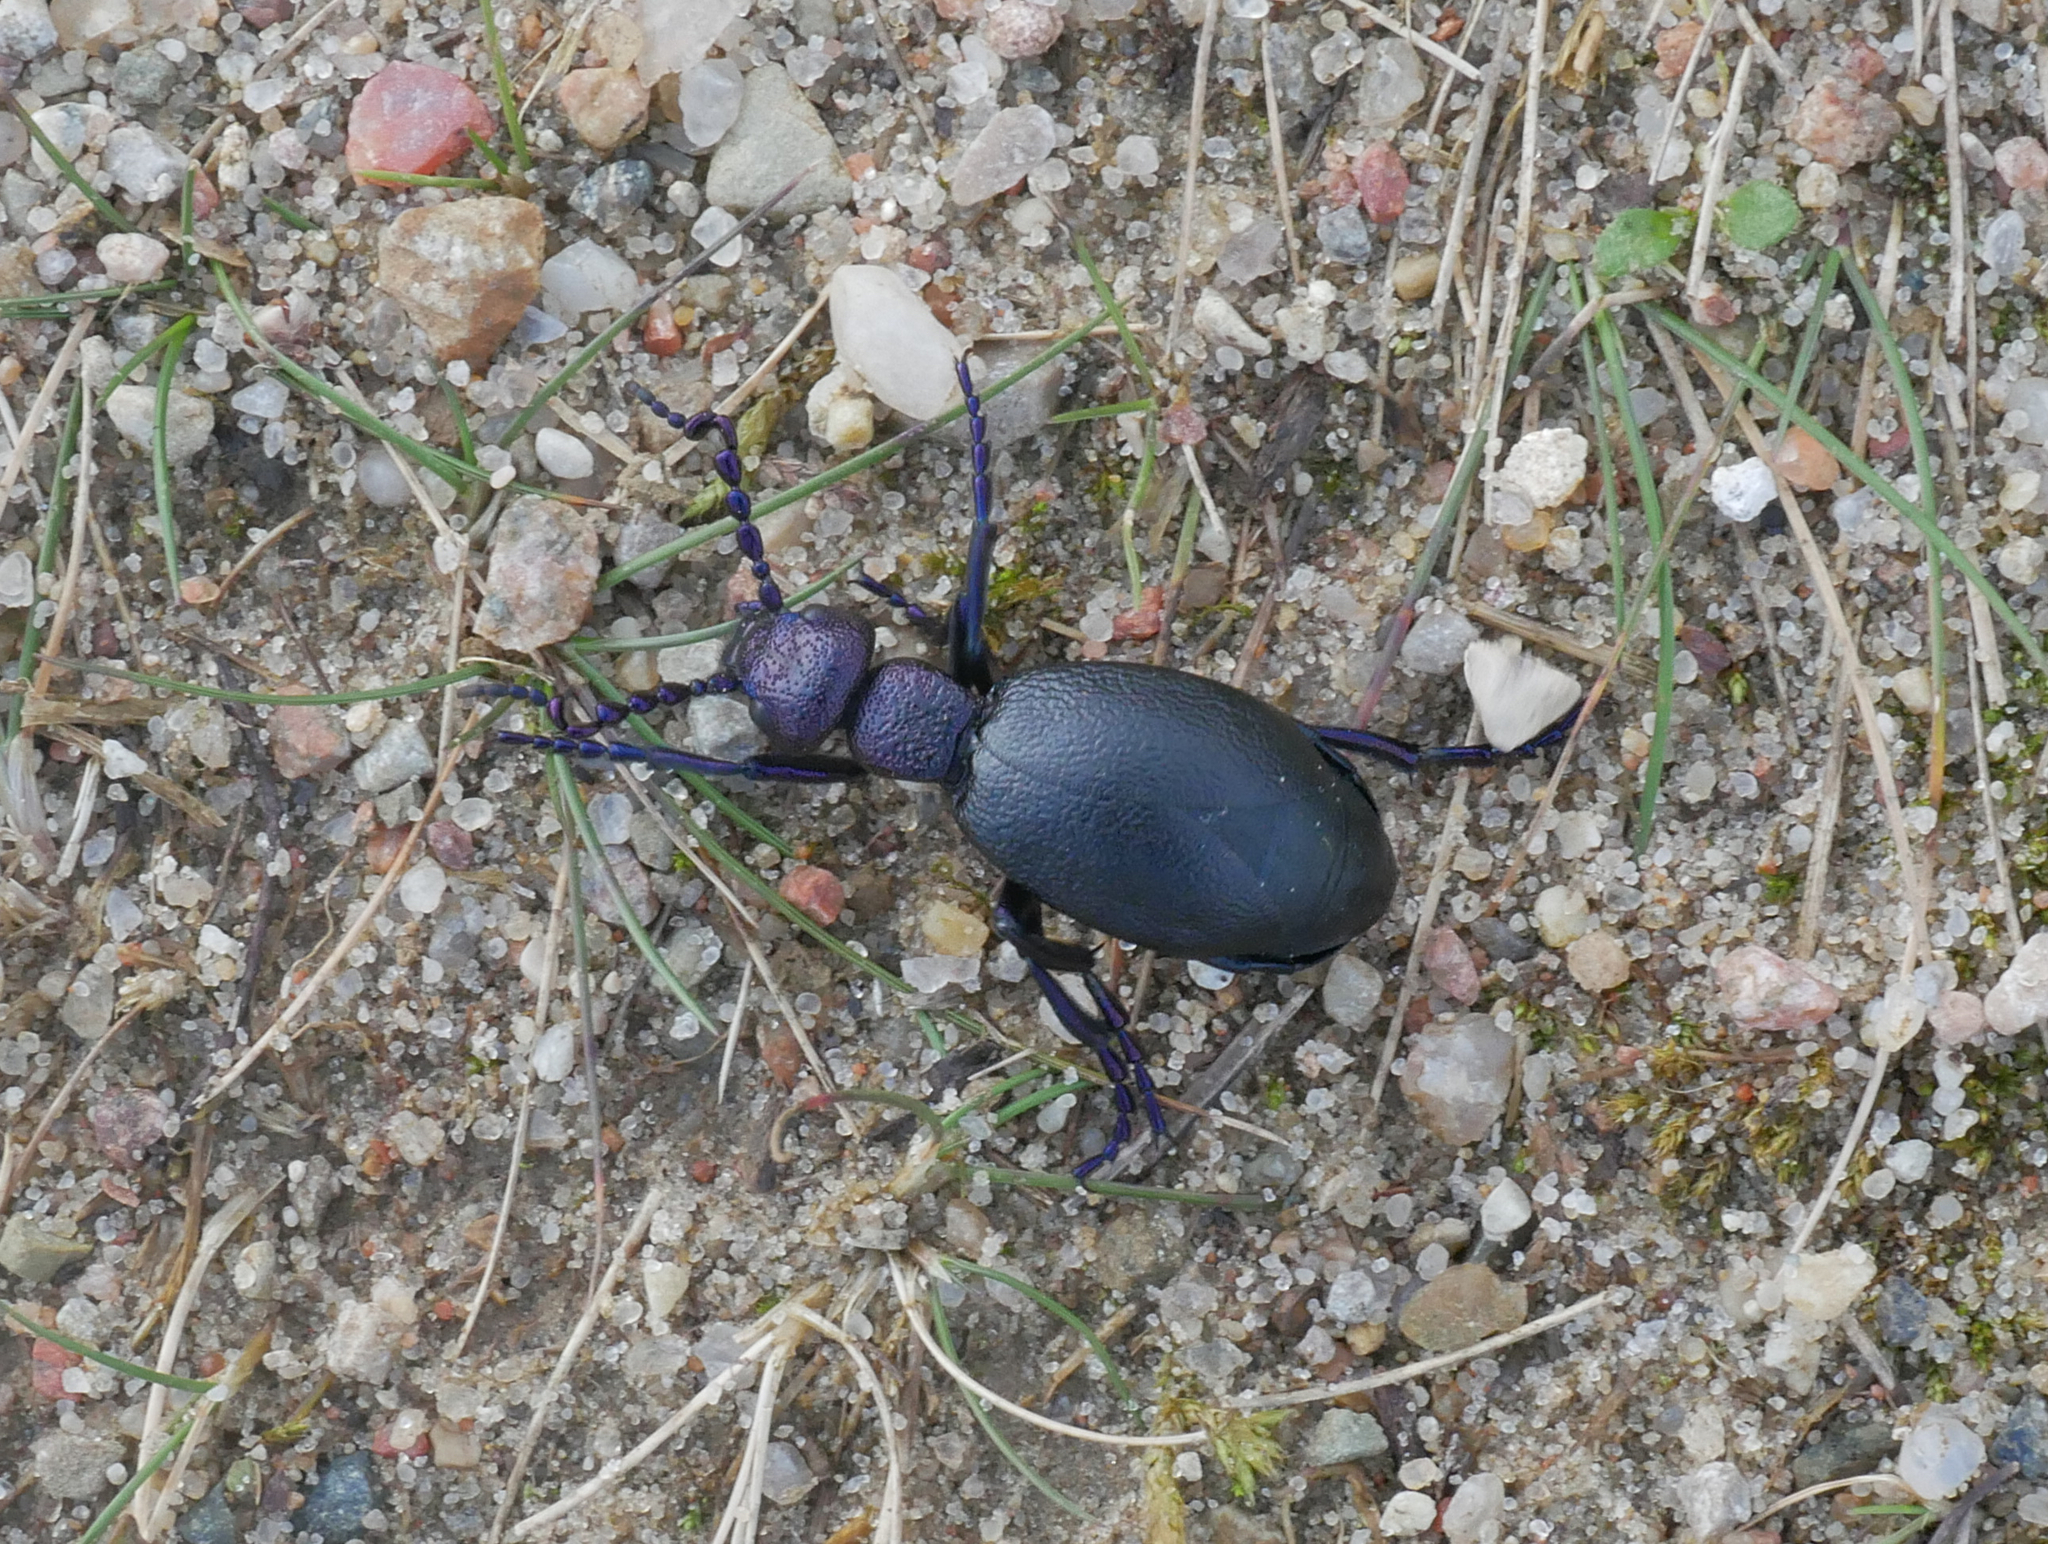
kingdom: Animalia
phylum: Arthropoda
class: Insecta
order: Coleoptera
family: Meloidae
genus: Meloe
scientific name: Meloe proscarabaeus
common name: Black oil-beetle
